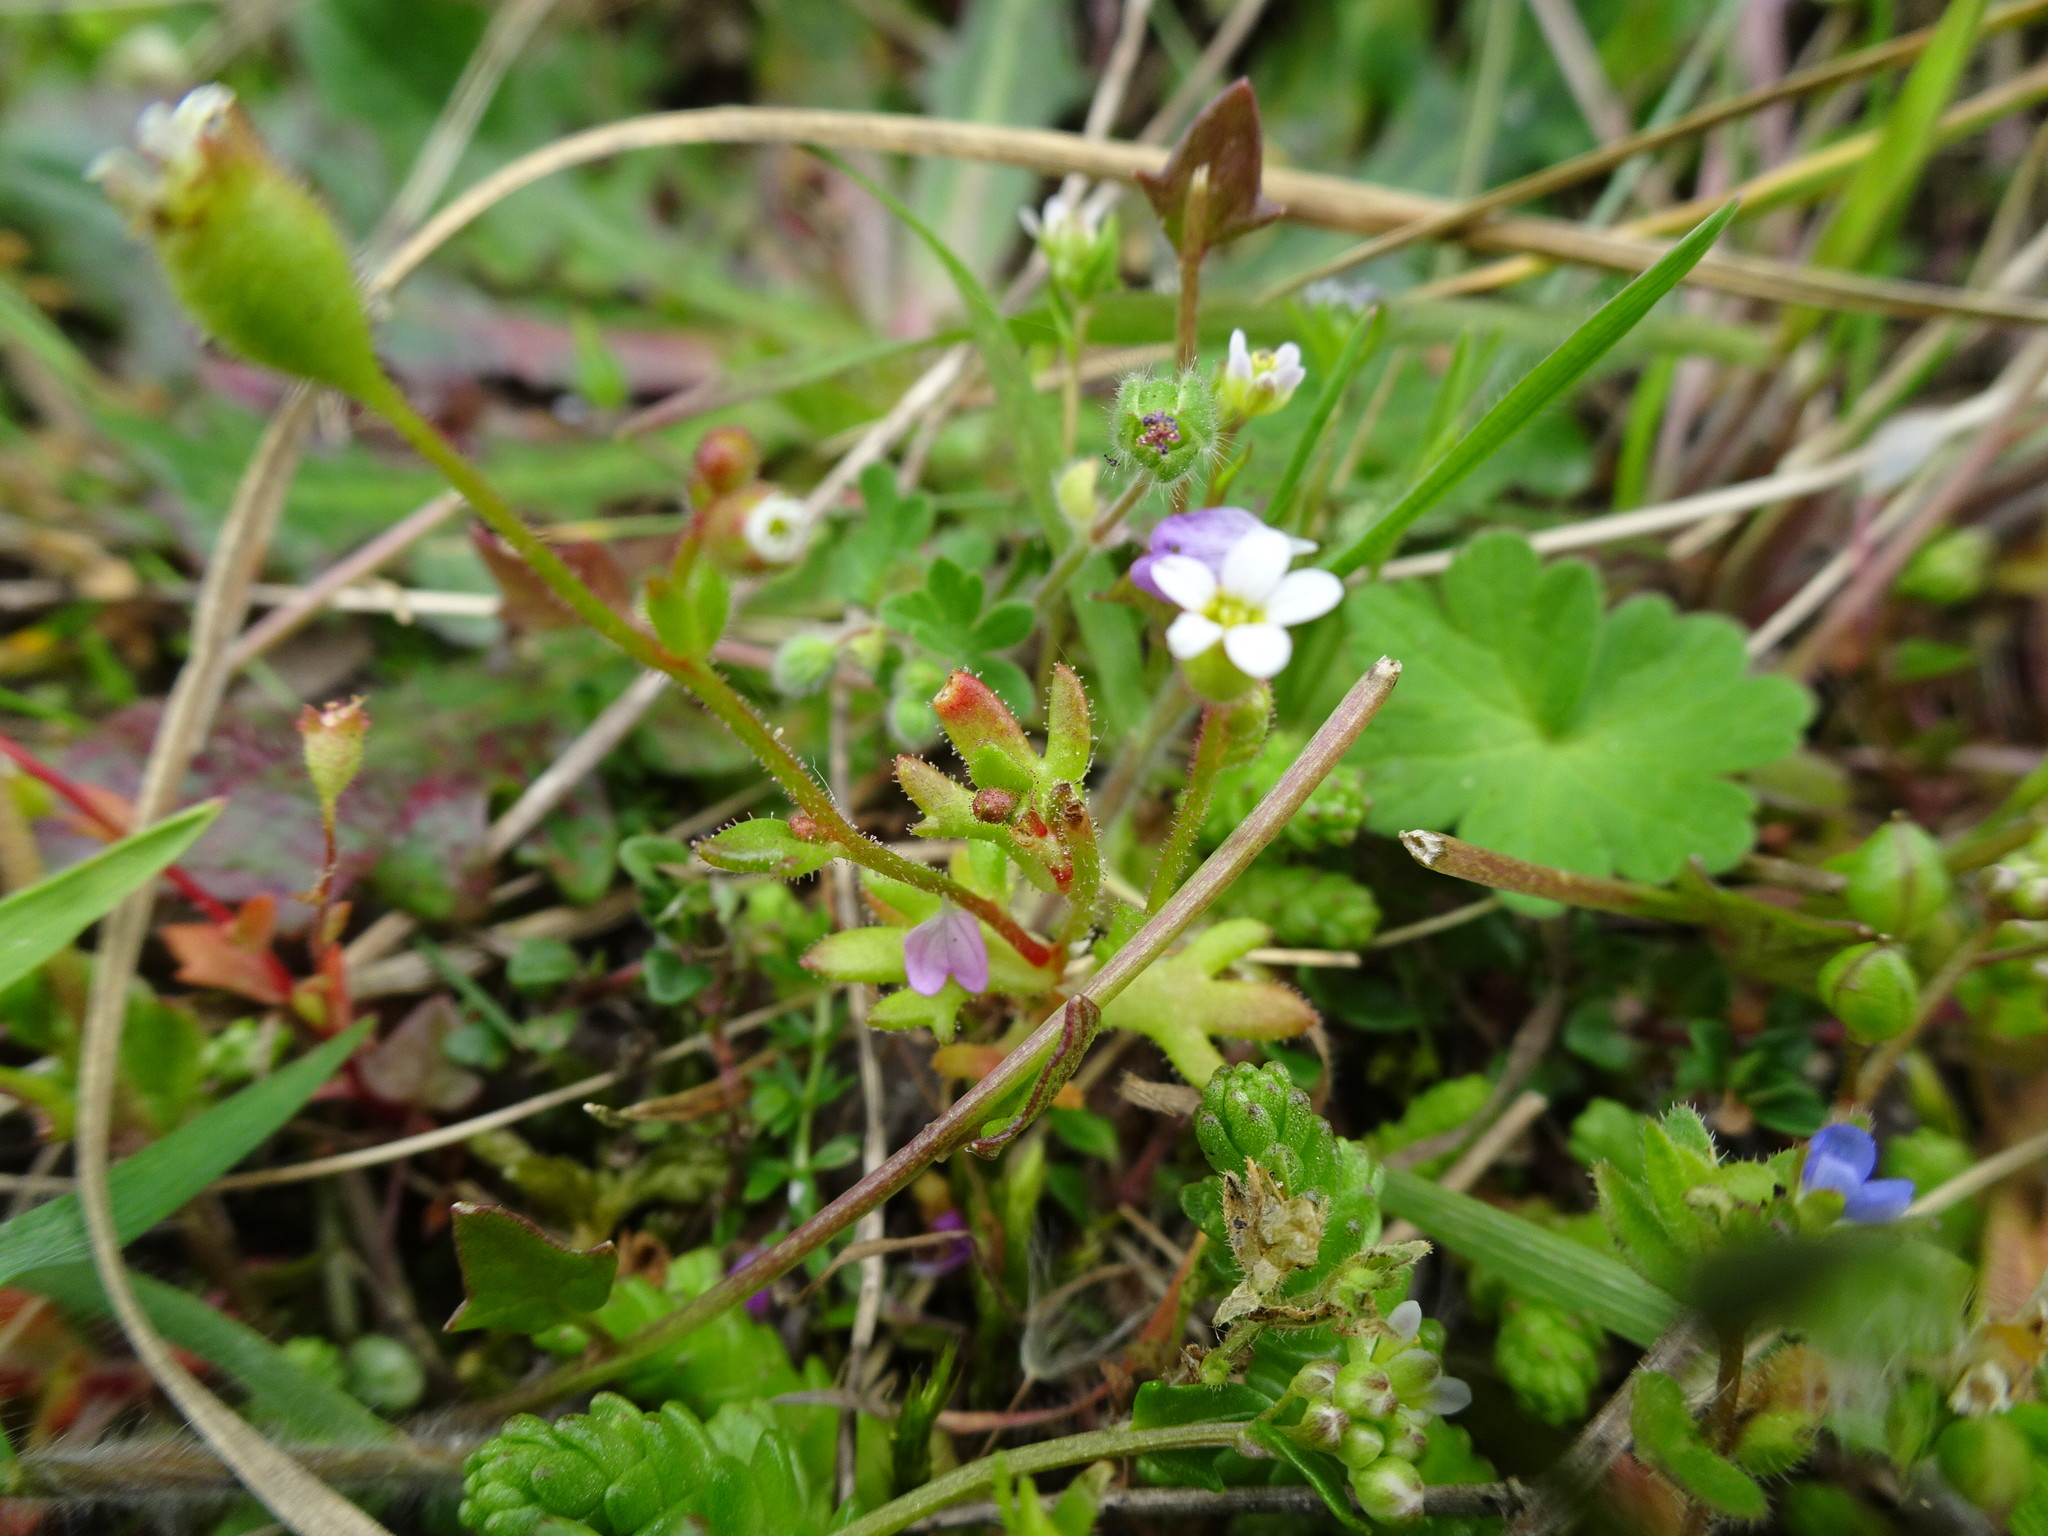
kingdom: Plantae
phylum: Tracheophyta
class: Magnoliopsida
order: Saxifragales
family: Saxifragaceae
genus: Saxifraga
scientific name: Saxifraga tridactylites
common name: Rue-leaved saxifrage
